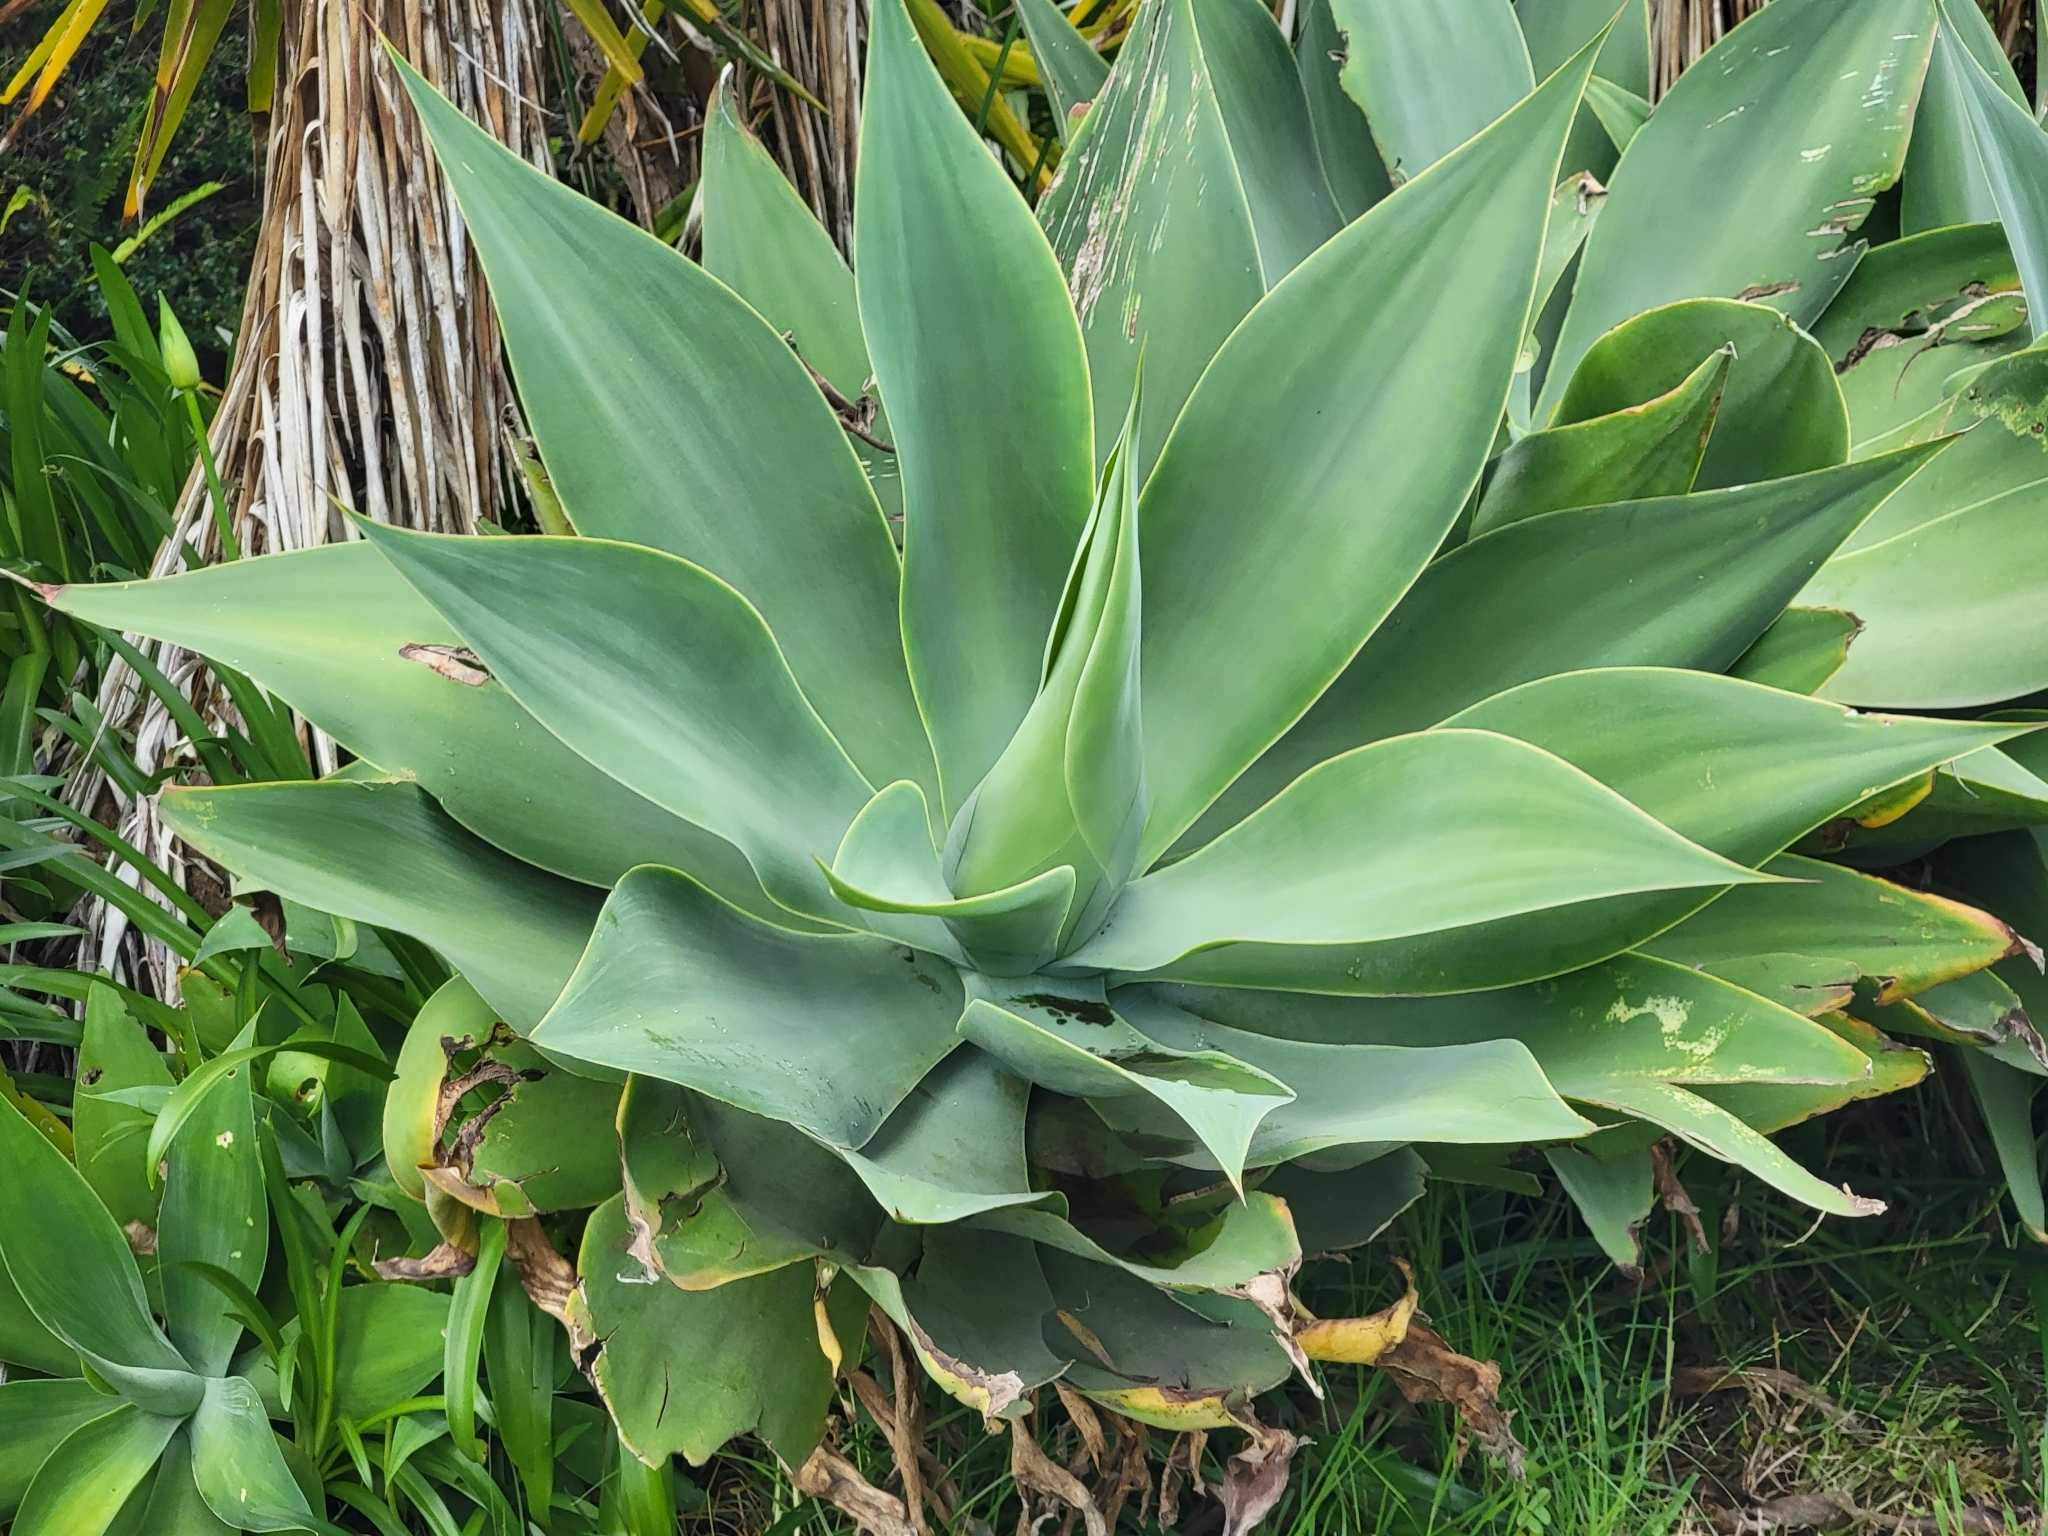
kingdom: Plantae
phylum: Tracheophyta
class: Liliopsida
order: Asparagales
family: Asparagaceae
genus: Agave
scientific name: Agave attenuata
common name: Fox tail agave
